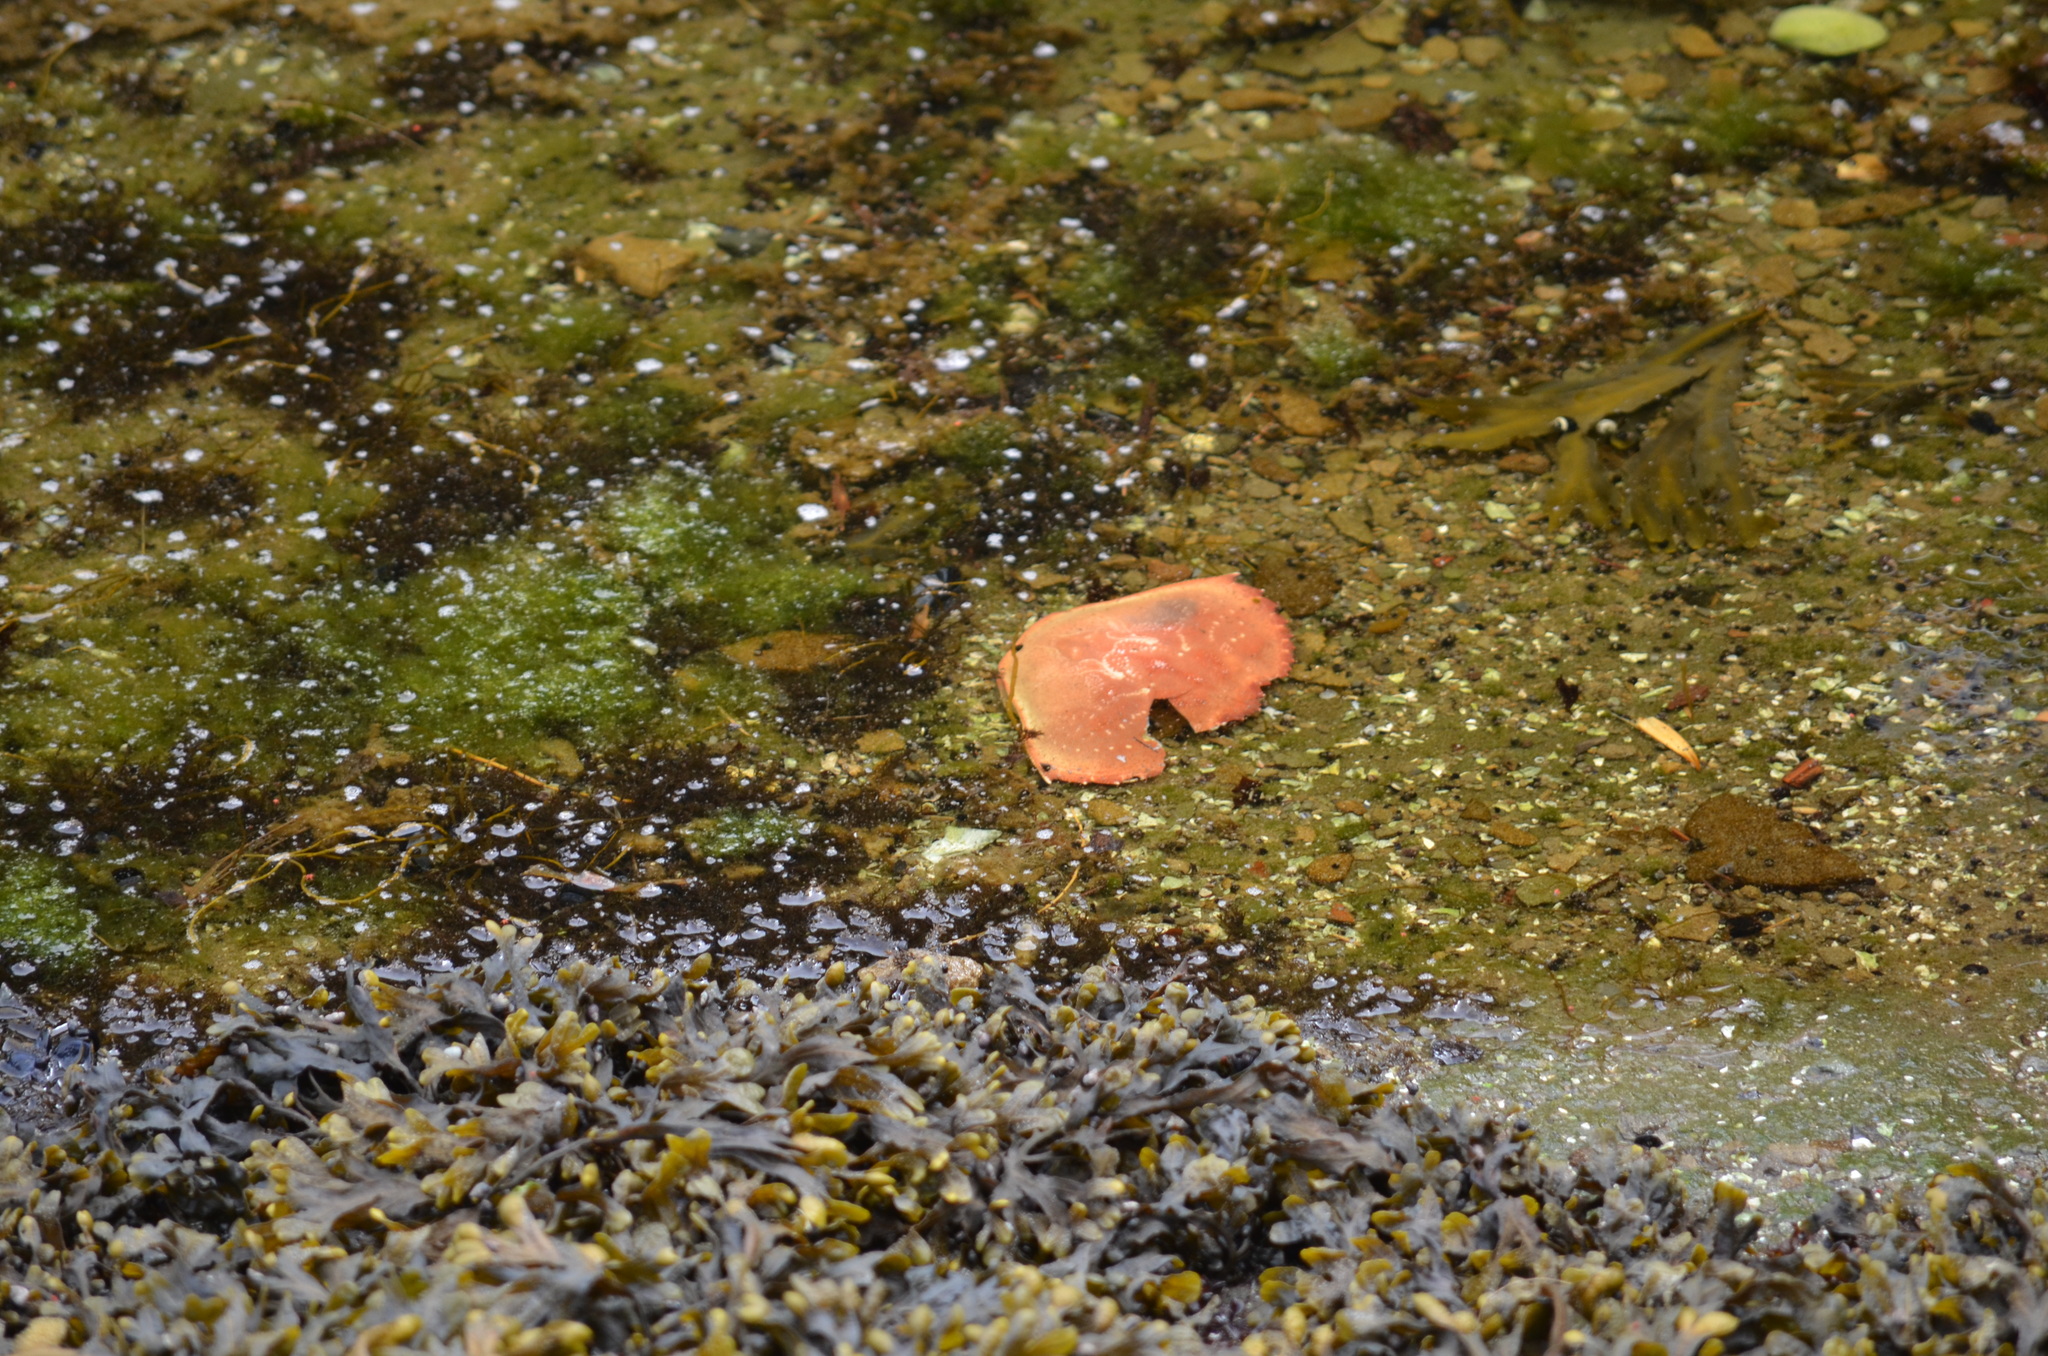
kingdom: Animalia
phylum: Arthropoda
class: Malacostraca
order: Decapoda
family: Cancridae
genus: Metacarcinus
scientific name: Metacarcinus magister
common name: Californian crab
